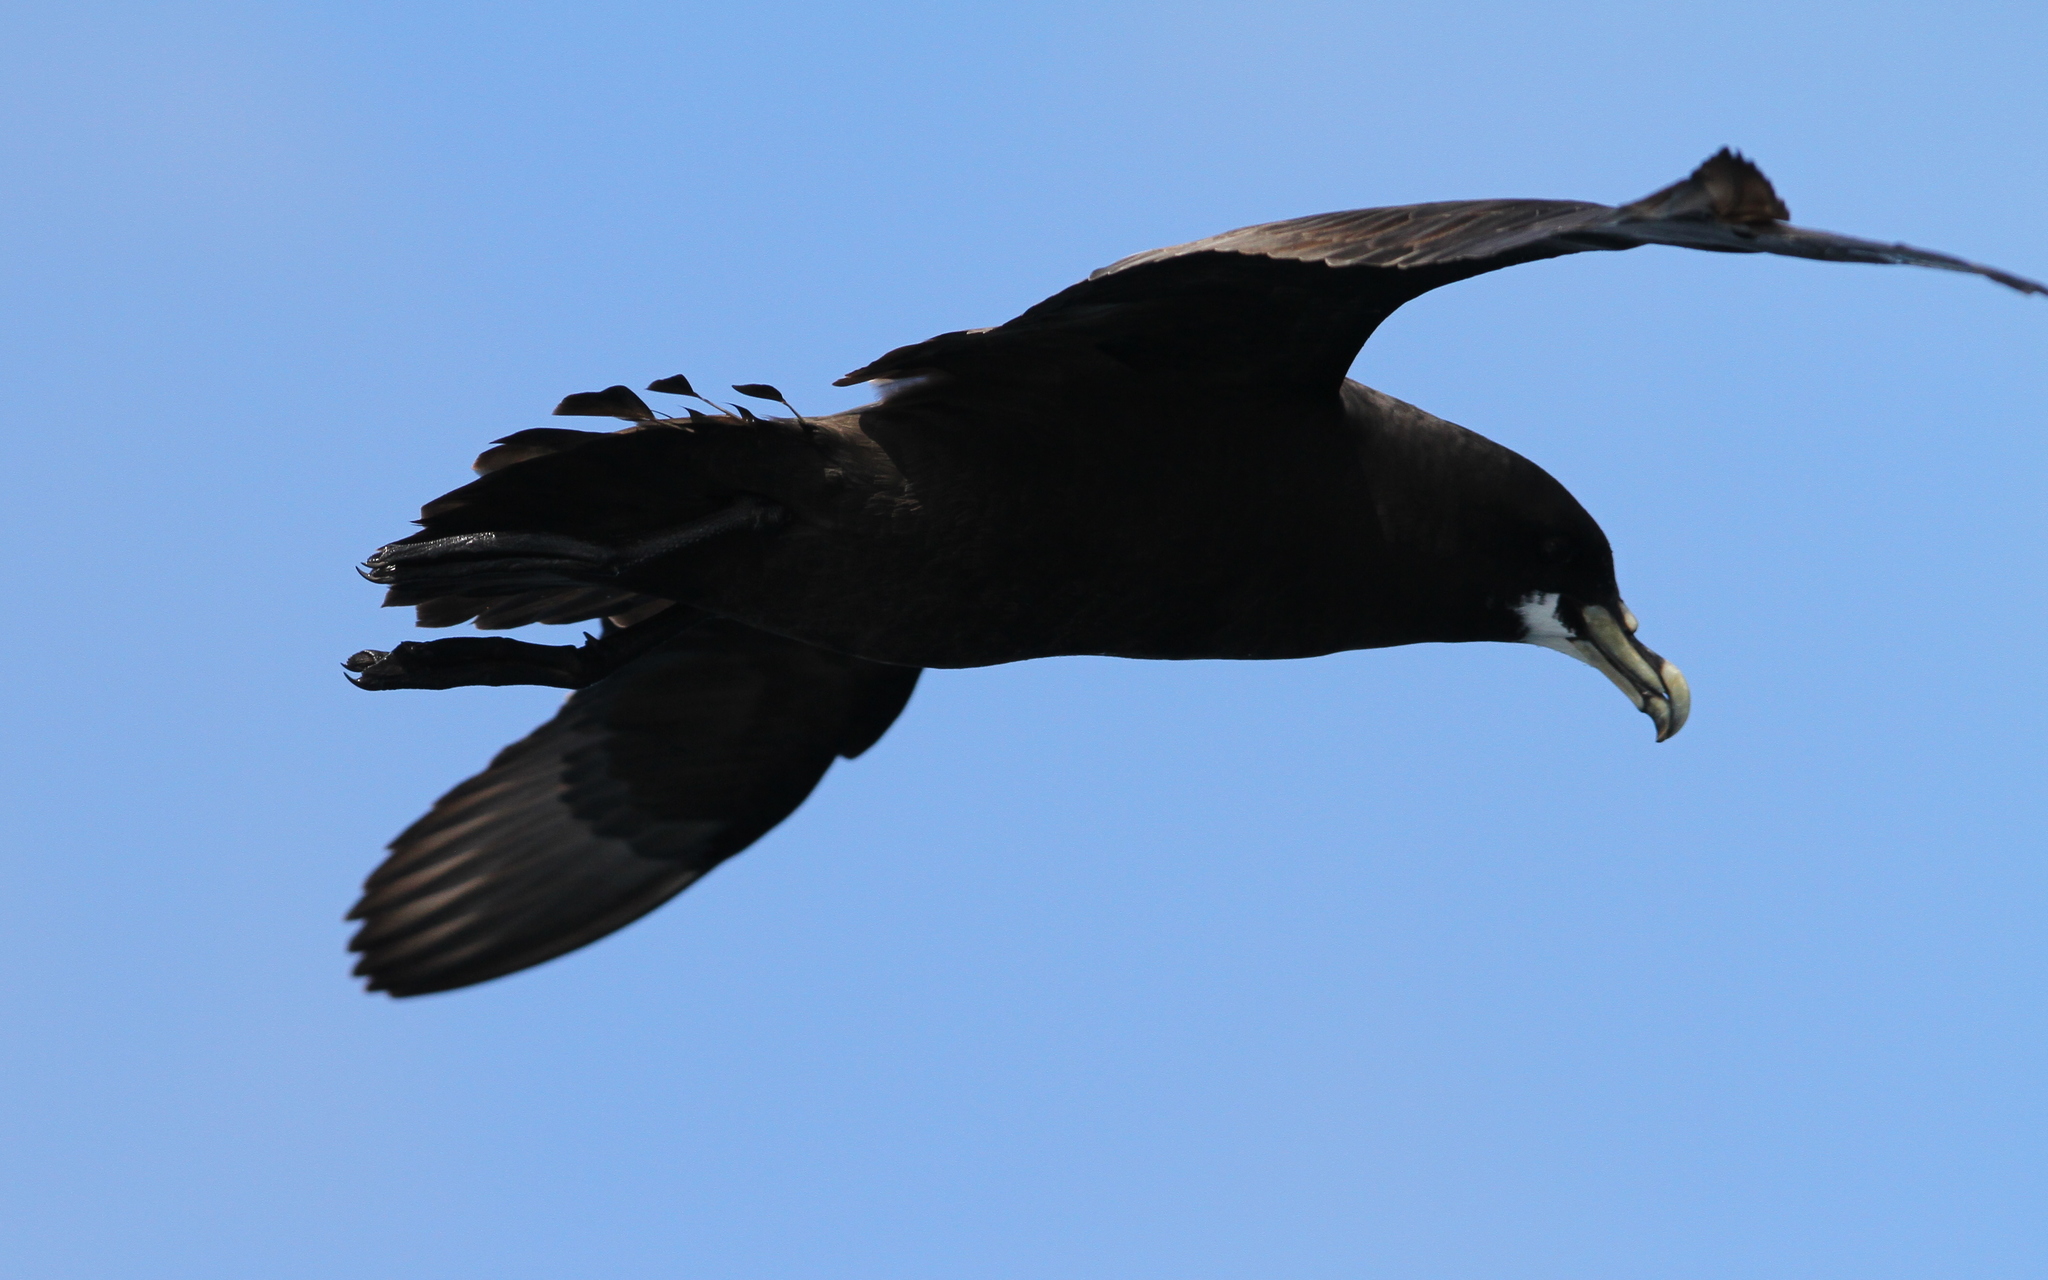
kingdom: Animalia
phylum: Chordata
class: Aves
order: Procellariiformes
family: Procellariidae
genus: Procellaria
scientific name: Procellaria aequinoctialis
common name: White-chinned petrel
